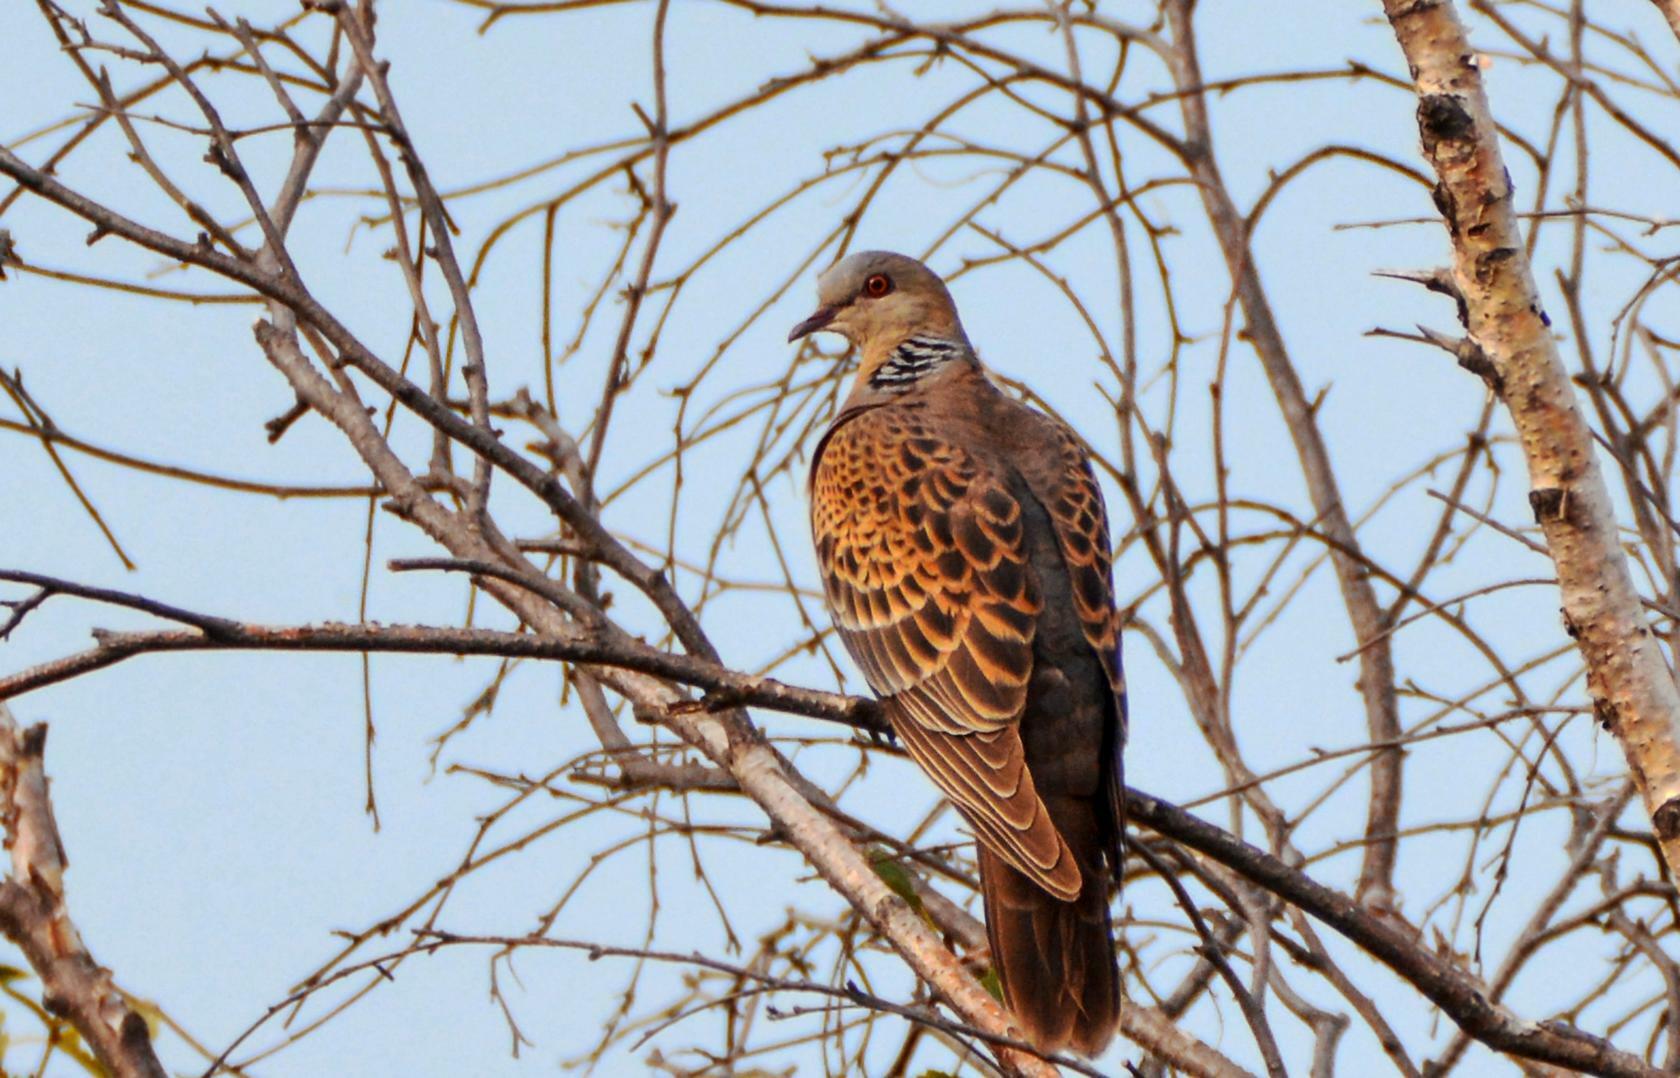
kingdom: Animalia
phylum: Chordata
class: Aves
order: Columbiformes
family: Columbidae
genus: Streptopelia
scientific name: Streptopelia orientalis
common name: Oriental turtle dove
